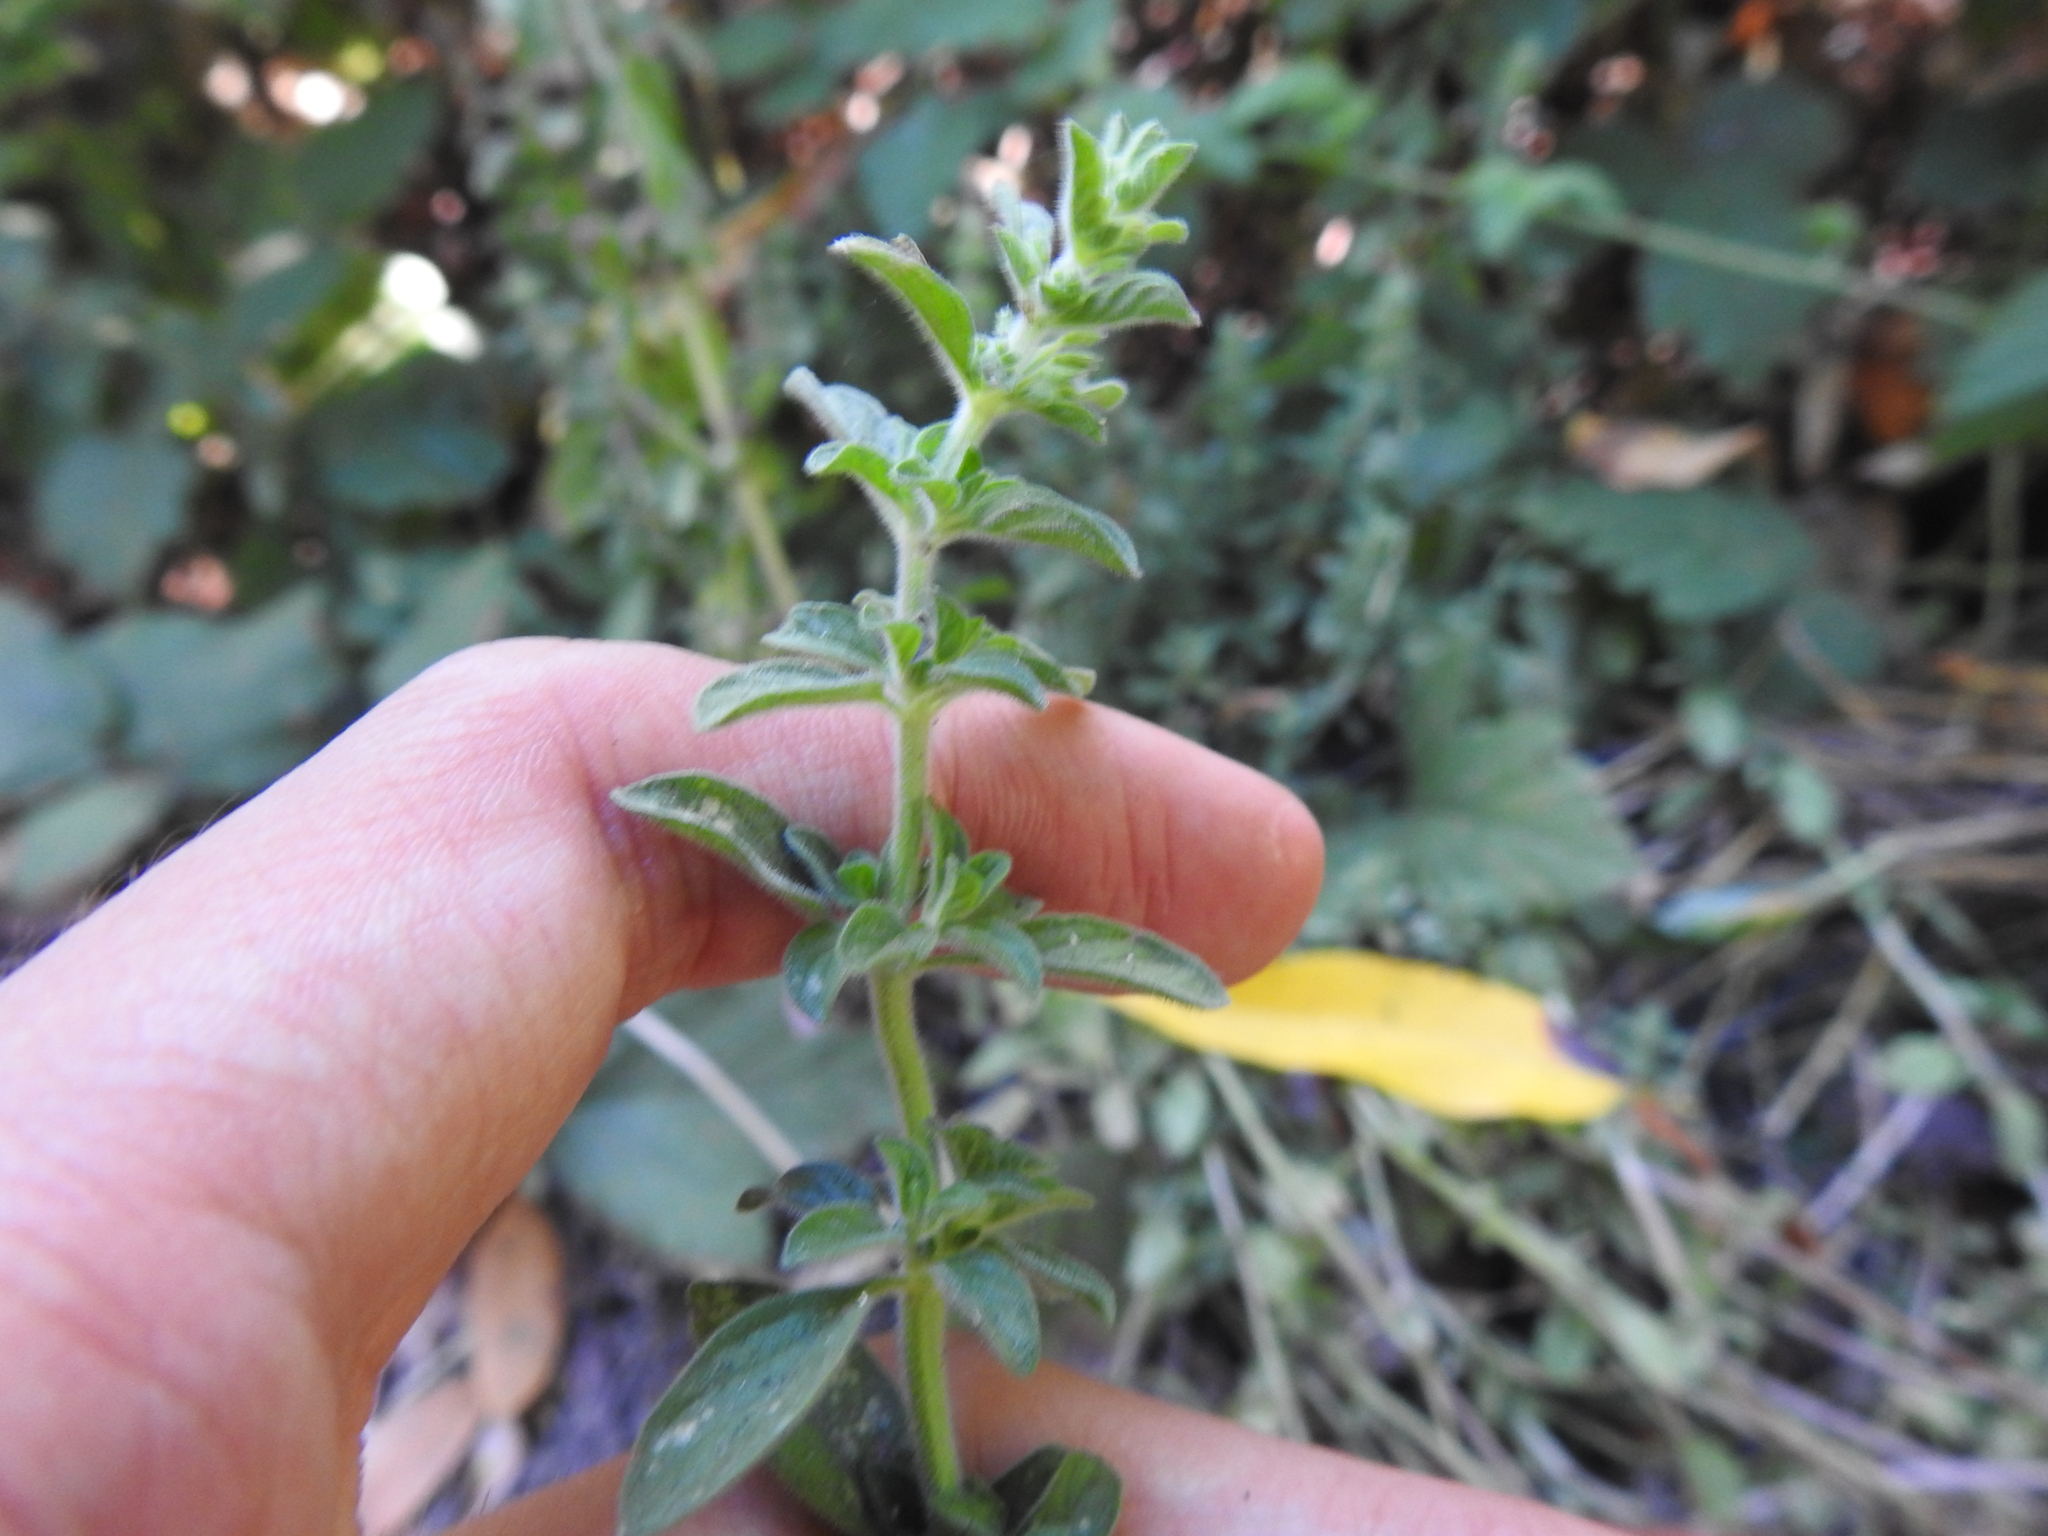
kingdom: Plantae
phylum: Tracheophyta
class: Magnoliopsida
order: Lamiales
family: Lamiaceae
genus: Mentha
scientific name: Mentha pulegium
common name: Pennyroyal
